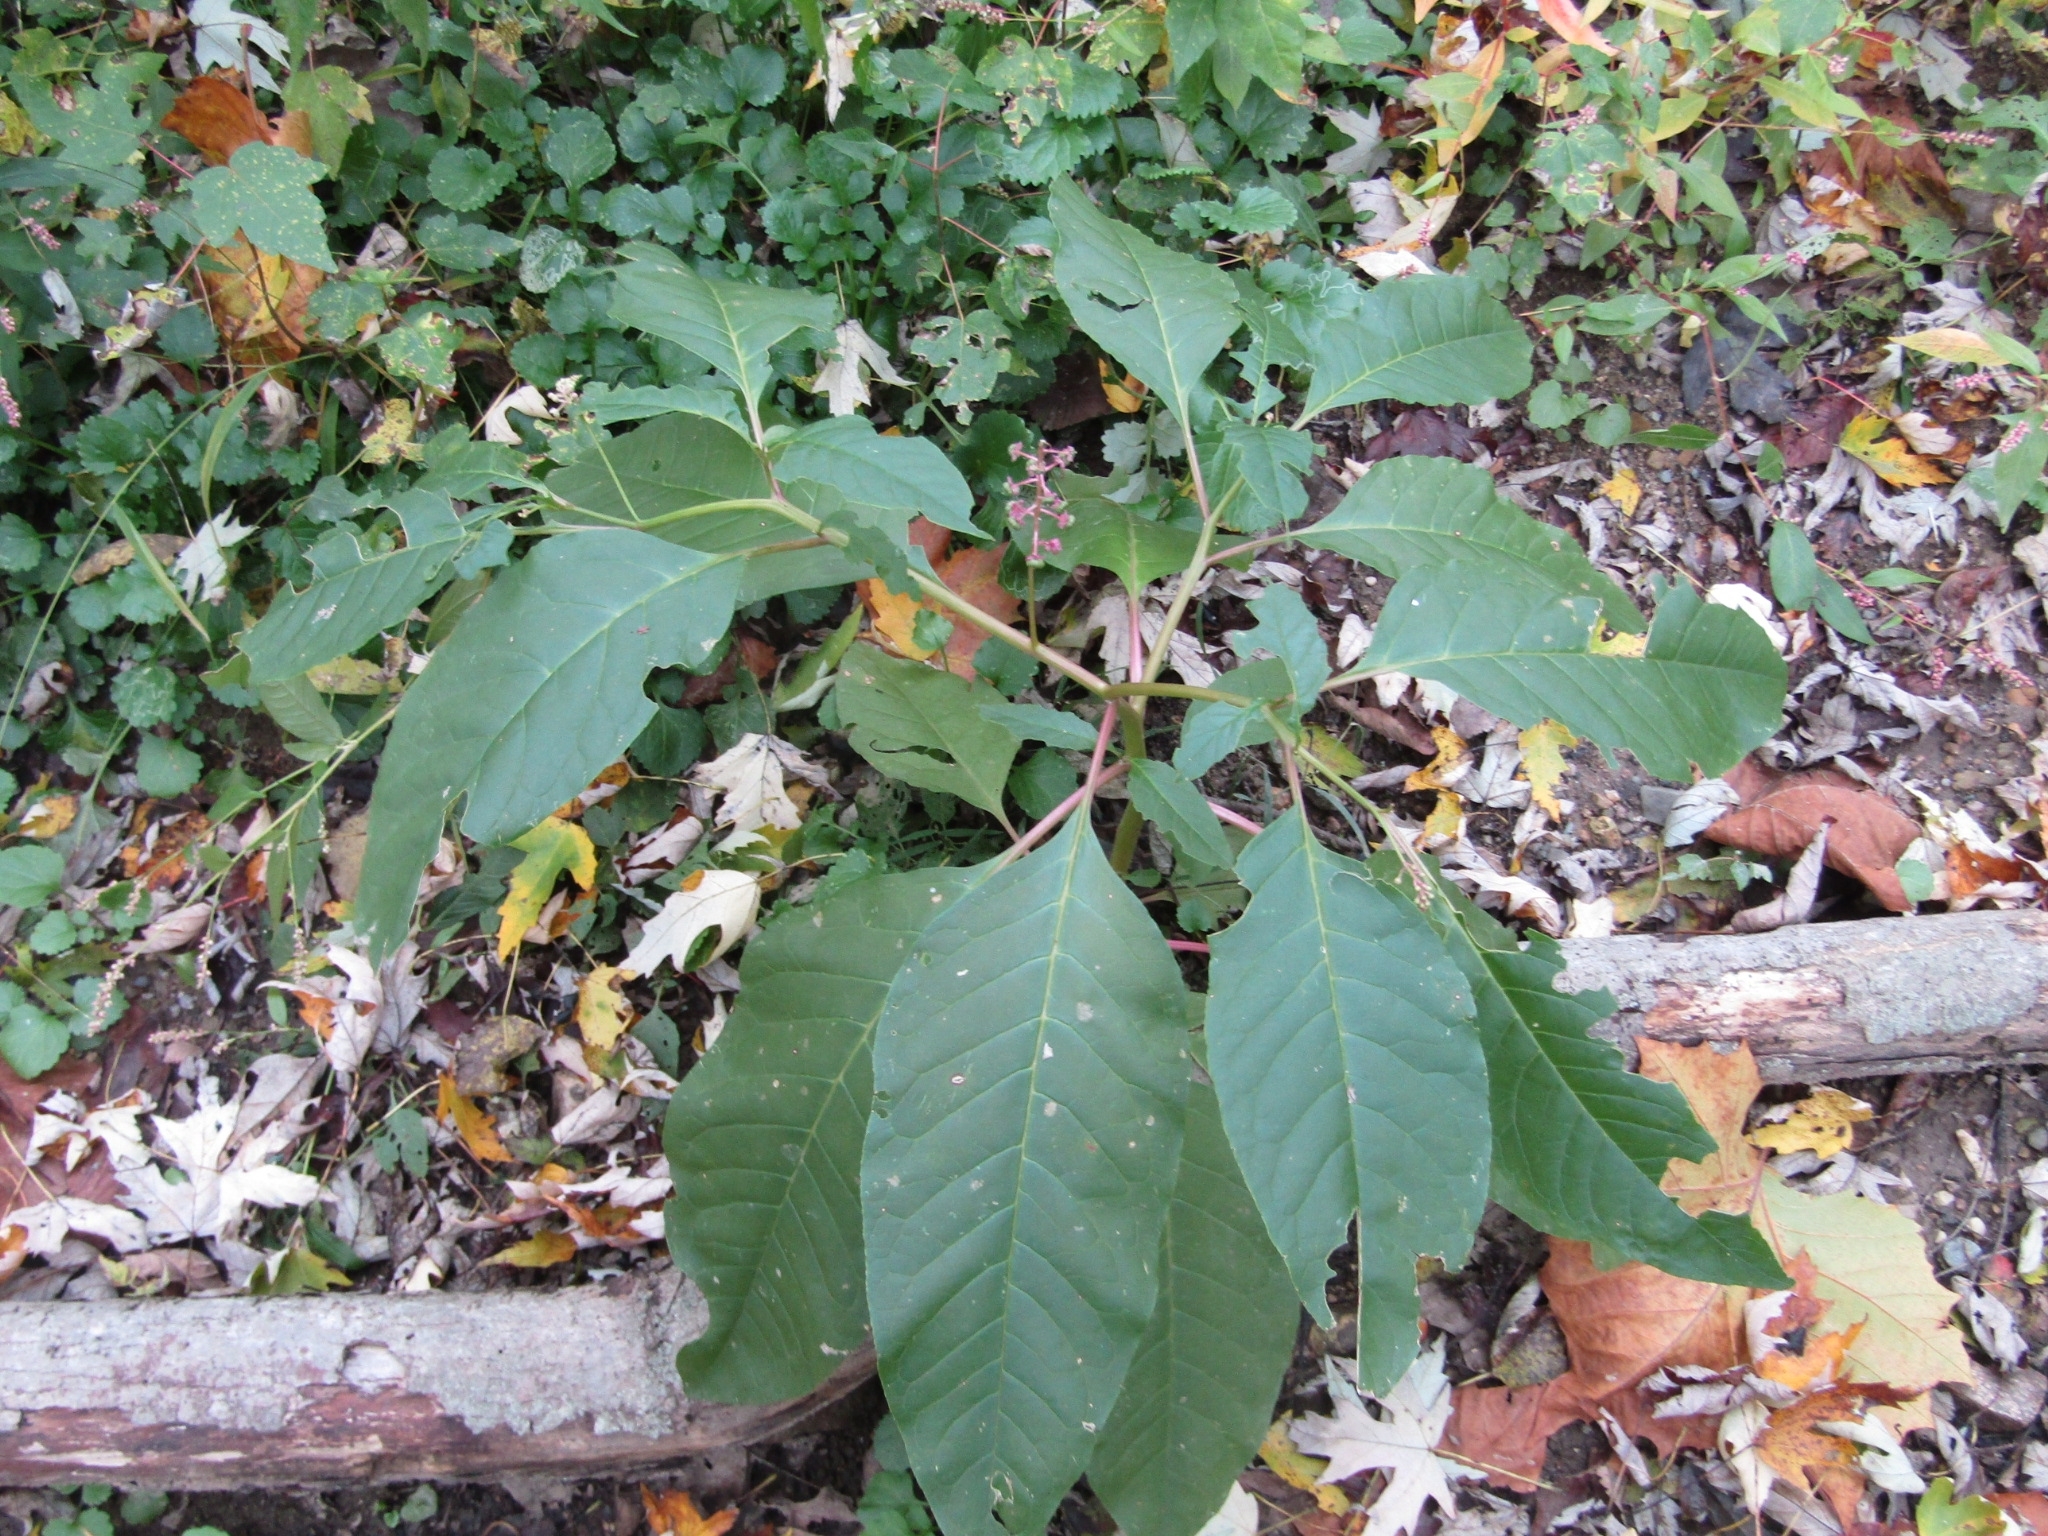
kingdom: Plantae
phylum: Tracheophyta
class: Magnoliopsida
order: Caryophyllales
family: Phytolaccaceae
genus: Phytolacca
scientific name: Phytolacca americana
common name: American pokeweed
